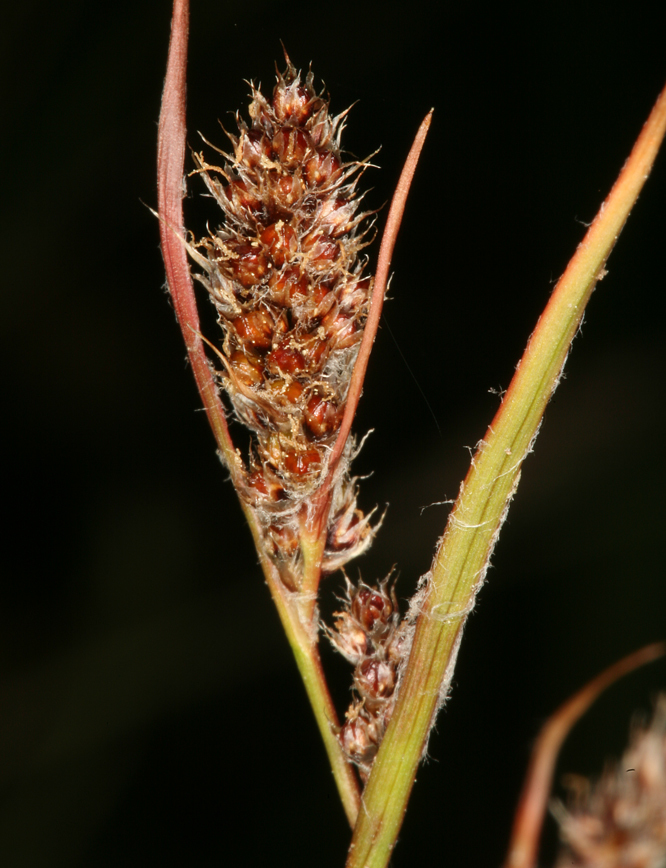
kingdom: Plantae
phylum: Tracheophyta
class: Liliopsida
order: Poales
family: Juncaceae
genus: Luzula
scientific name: Luzula spicata
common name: Spiked wood-rush
